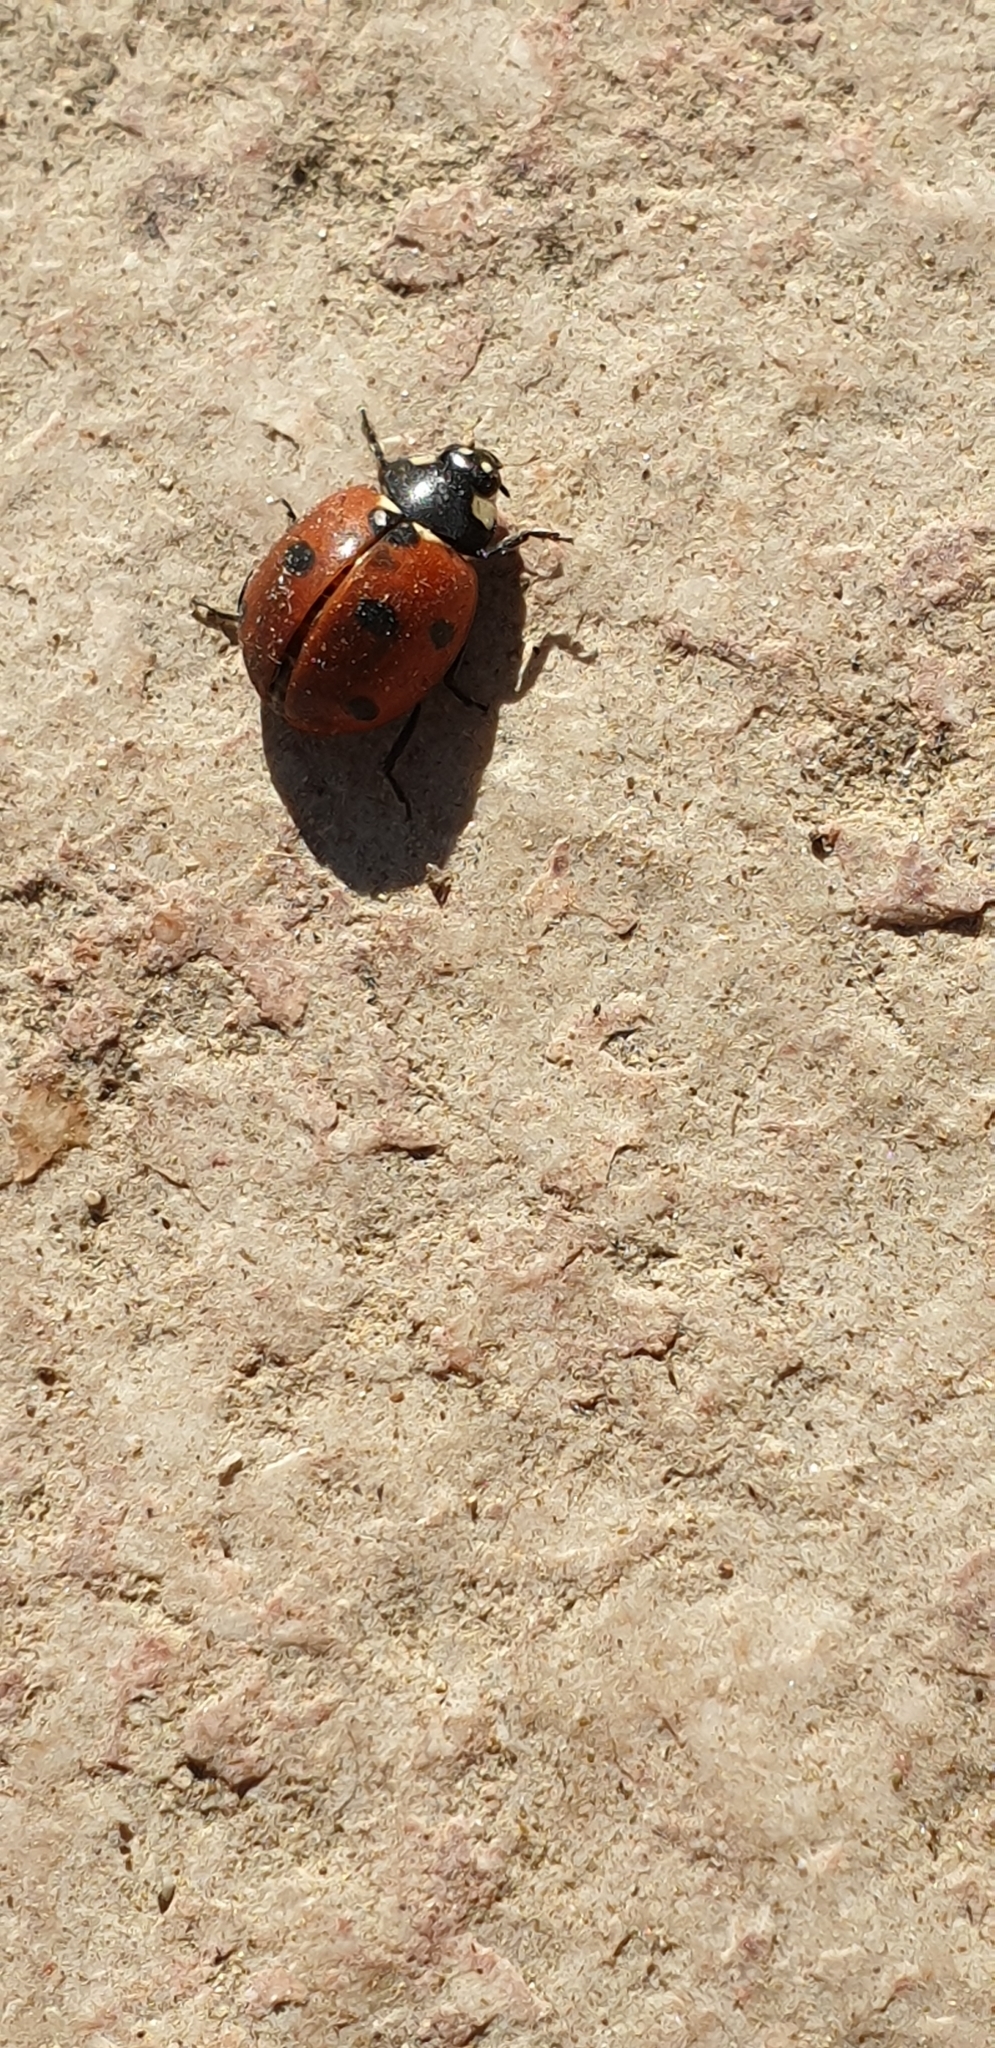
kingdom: Animalia
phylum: Arthropoda
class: Insecta
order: Coleoptera
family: Coccinellidae
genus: Coccinella
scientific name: Coccinella septempunctata
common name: Sevenspotted lady beetle
